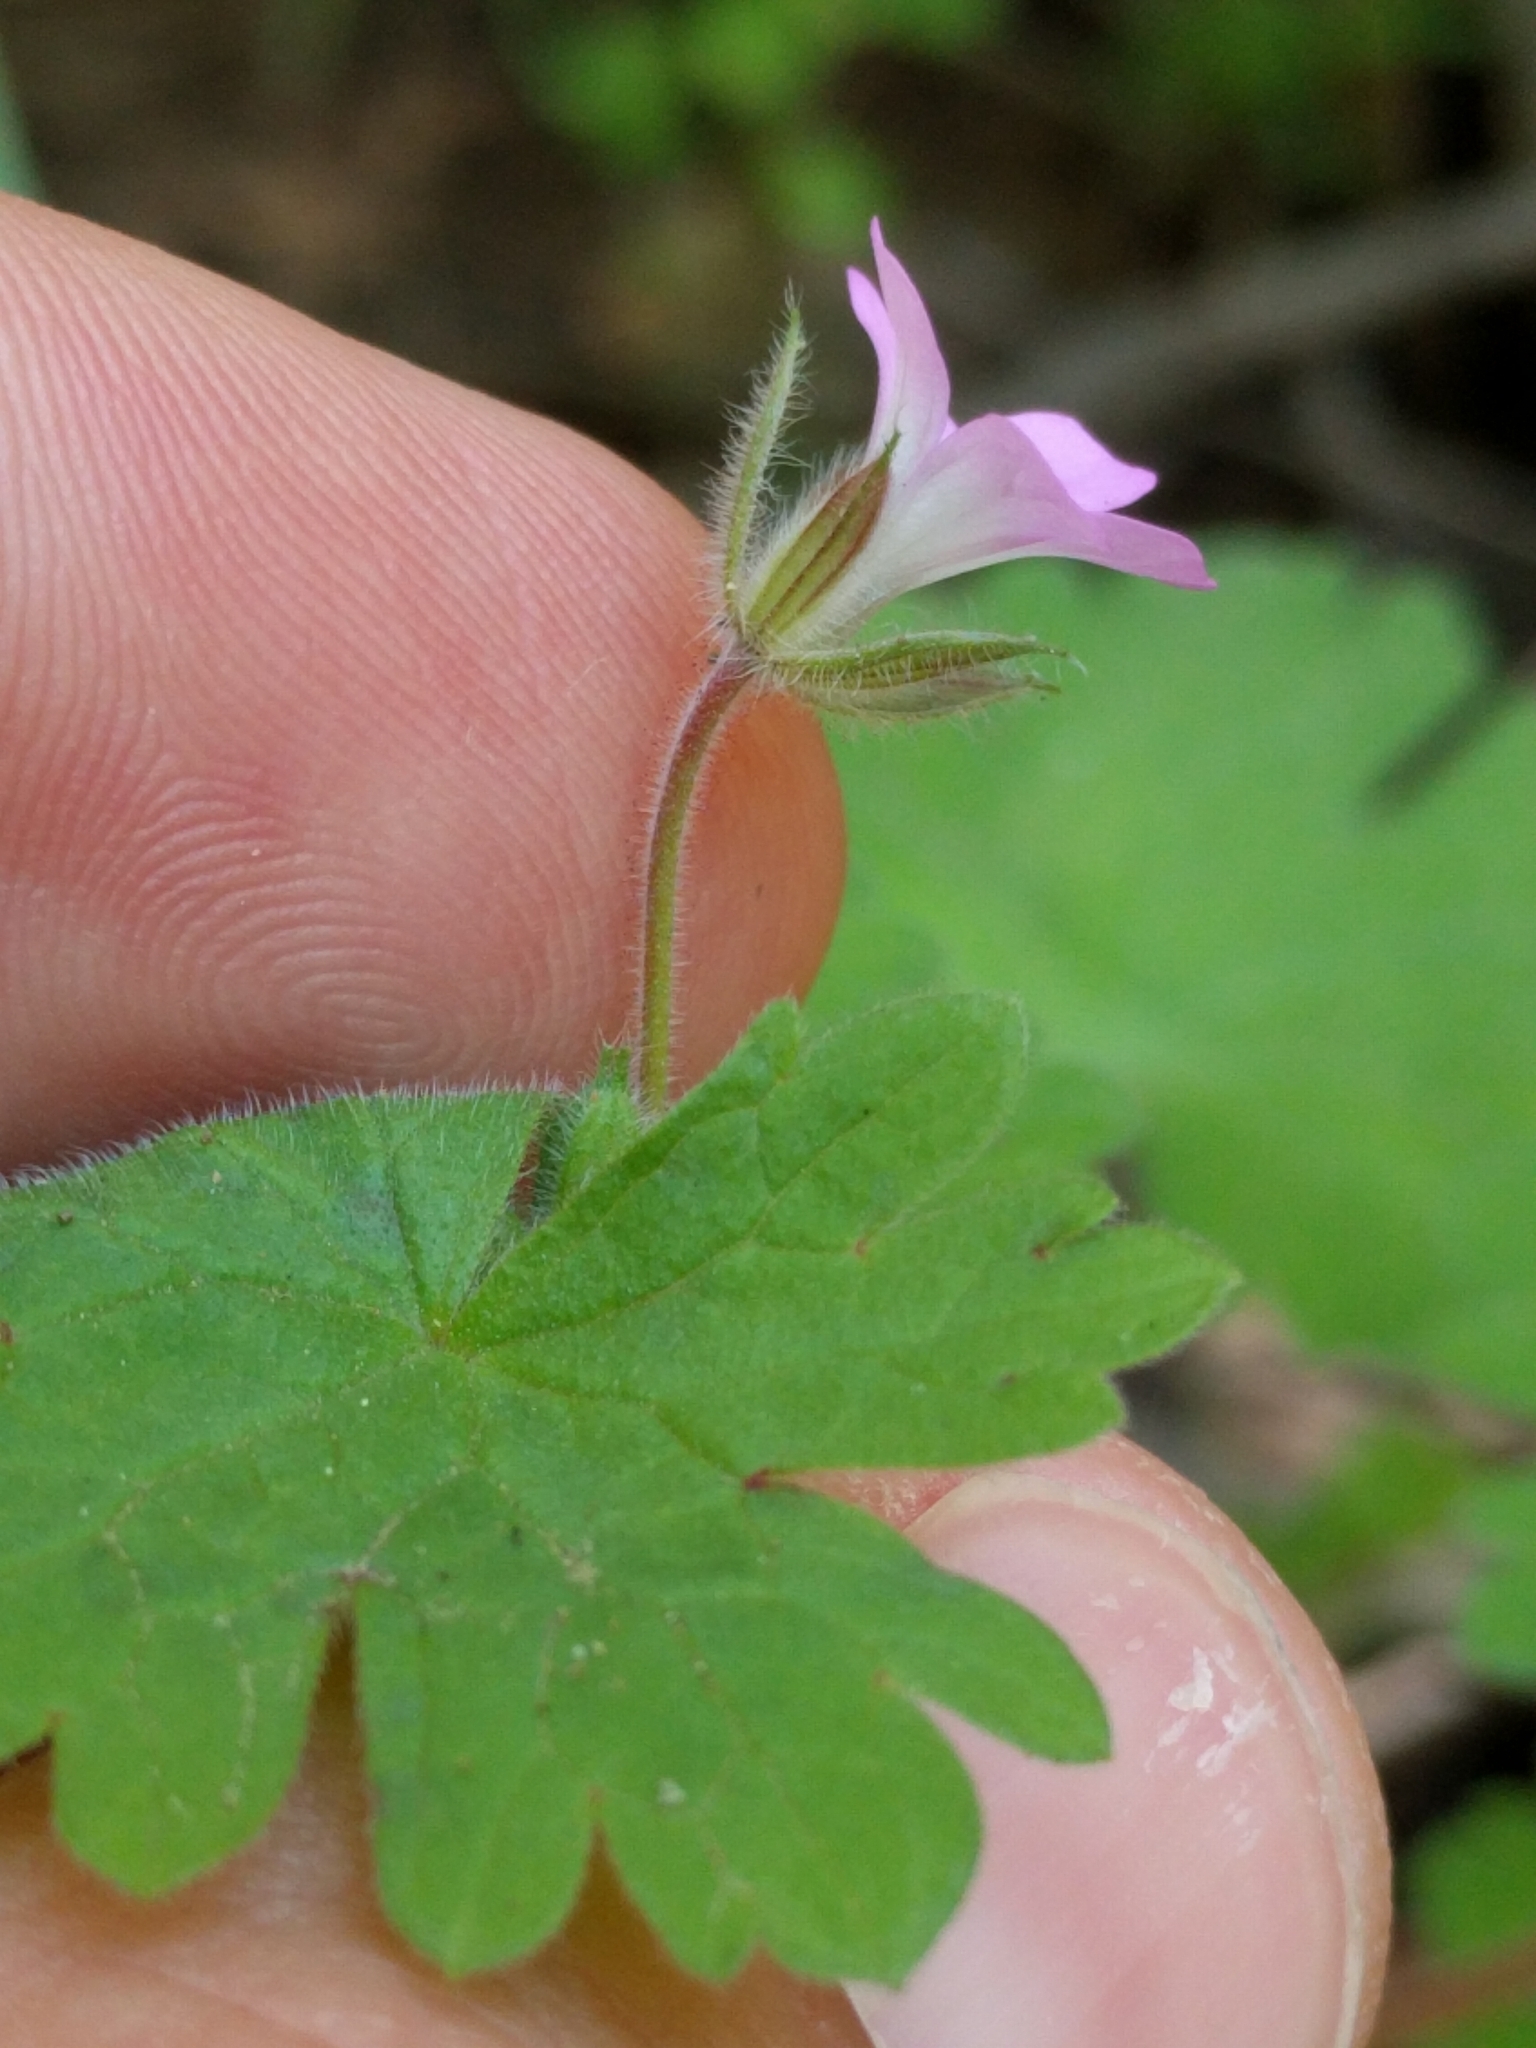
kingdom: Plantae
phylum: Tracheophyta
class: Magnoliopsida
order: Geraniales
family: Geraniaceae
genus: Geranium
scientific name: Geranium rotundifolium
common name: Round-leaved crane's-bill
